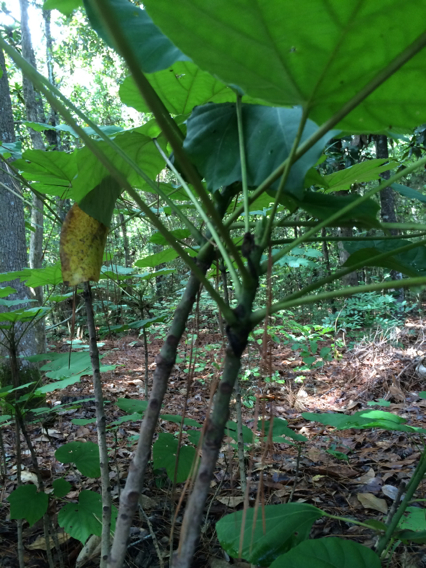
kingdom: Plantae
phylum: Tracheophyta
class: Magnoliopsida
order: Malpighiales
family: Euphorbiaceae
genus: Vernicia
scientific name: Vernicia fordii
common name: Tungoil tree
